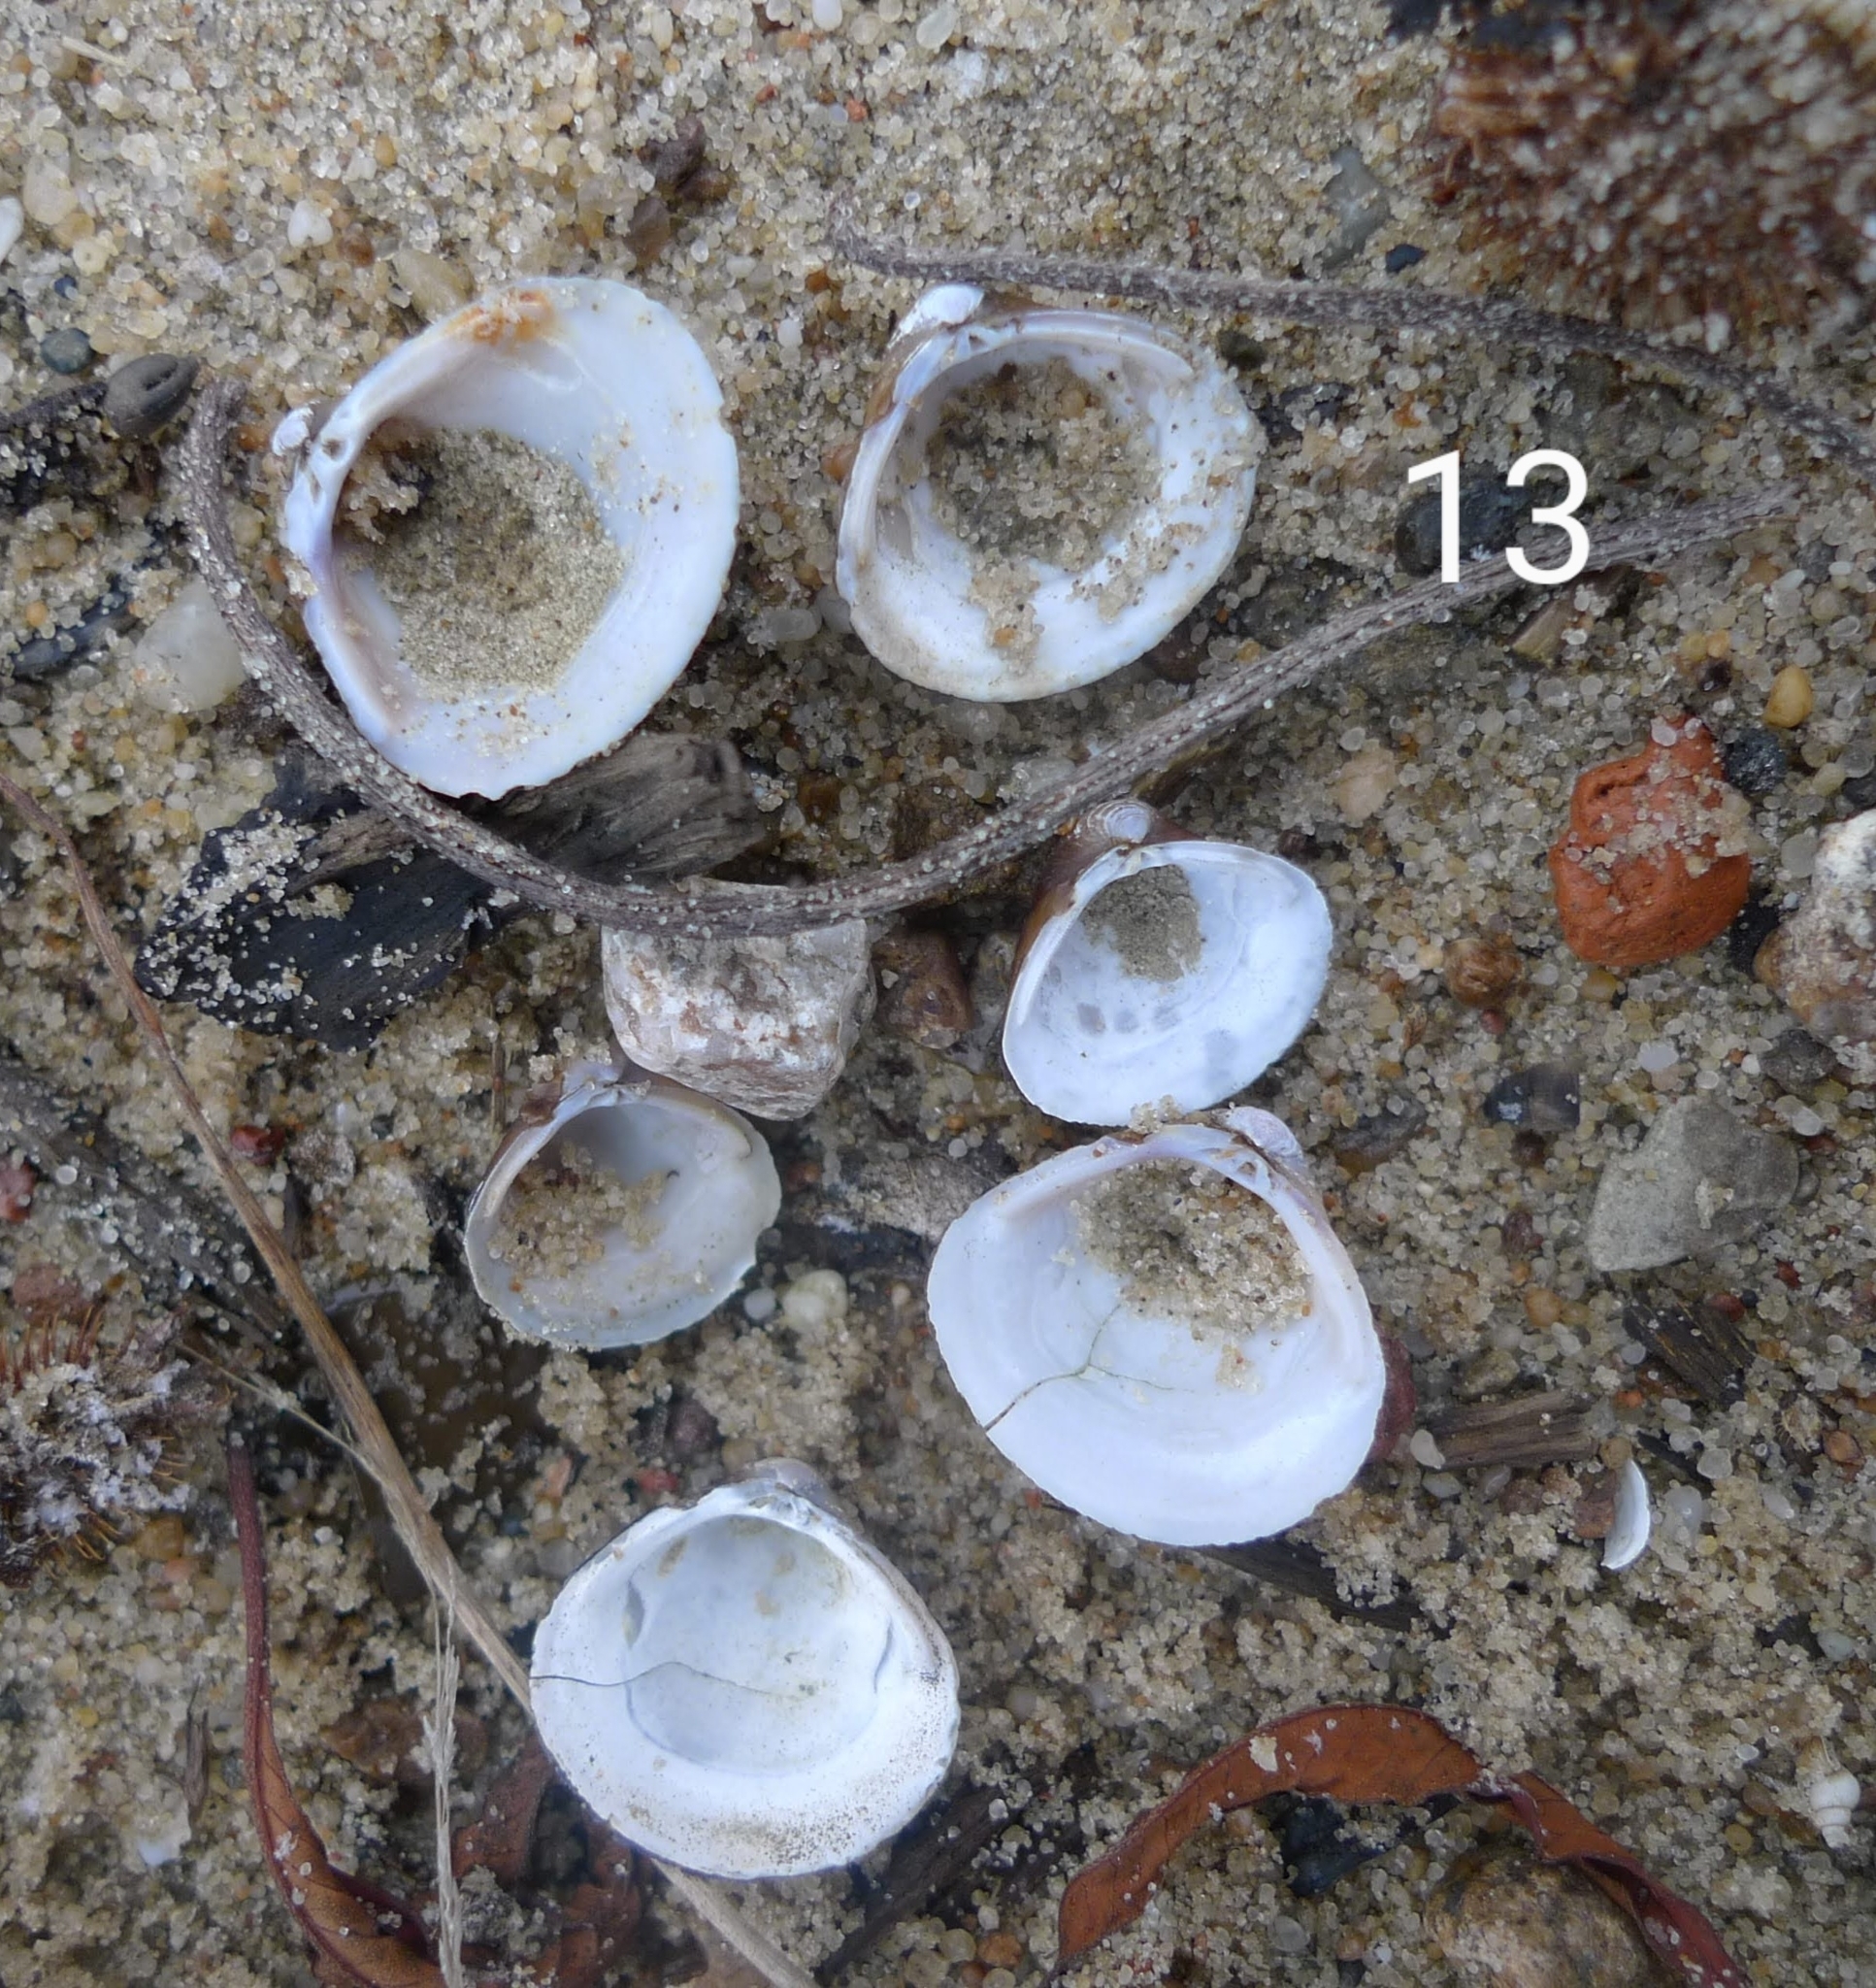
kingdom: Animalia
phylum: Mollusca
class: Bivalvia
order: Venerida
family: Cyrenidae
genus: Corbicula
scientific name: Corbicula fluminea
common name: Asian clam
